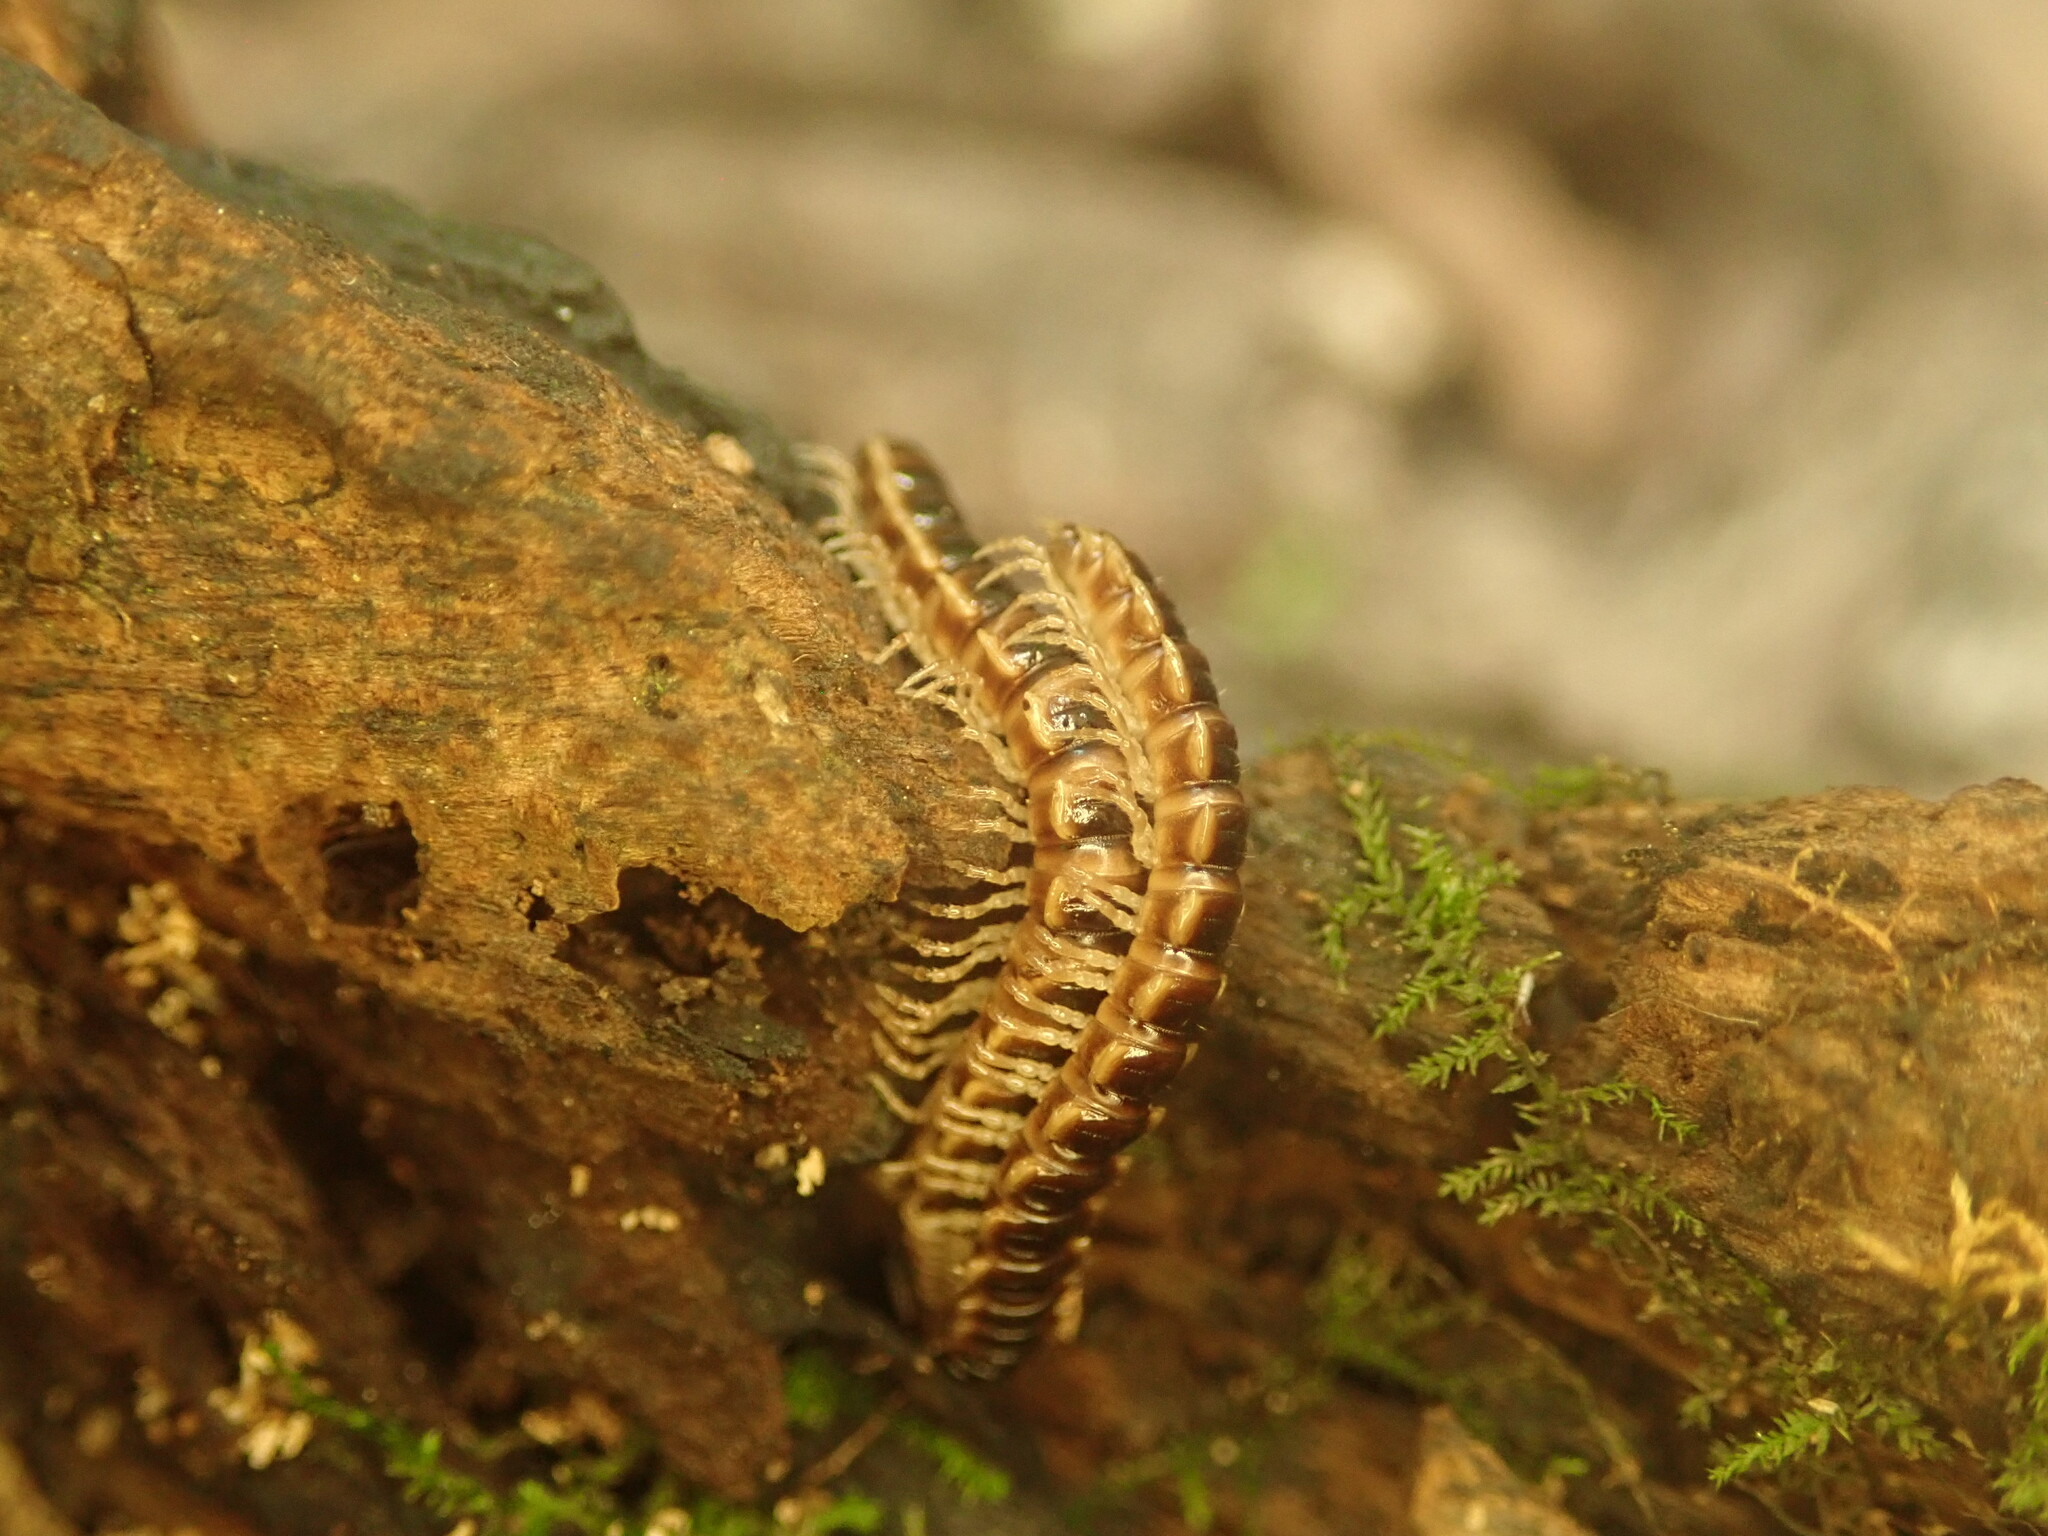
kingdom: Animalia
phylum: Arthropoda
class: Diplopoda
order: Polydesmida
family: Paradoxosomatidae
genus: Oxidus
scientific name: Oxidus gracilis
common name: Greenhouse millipede
